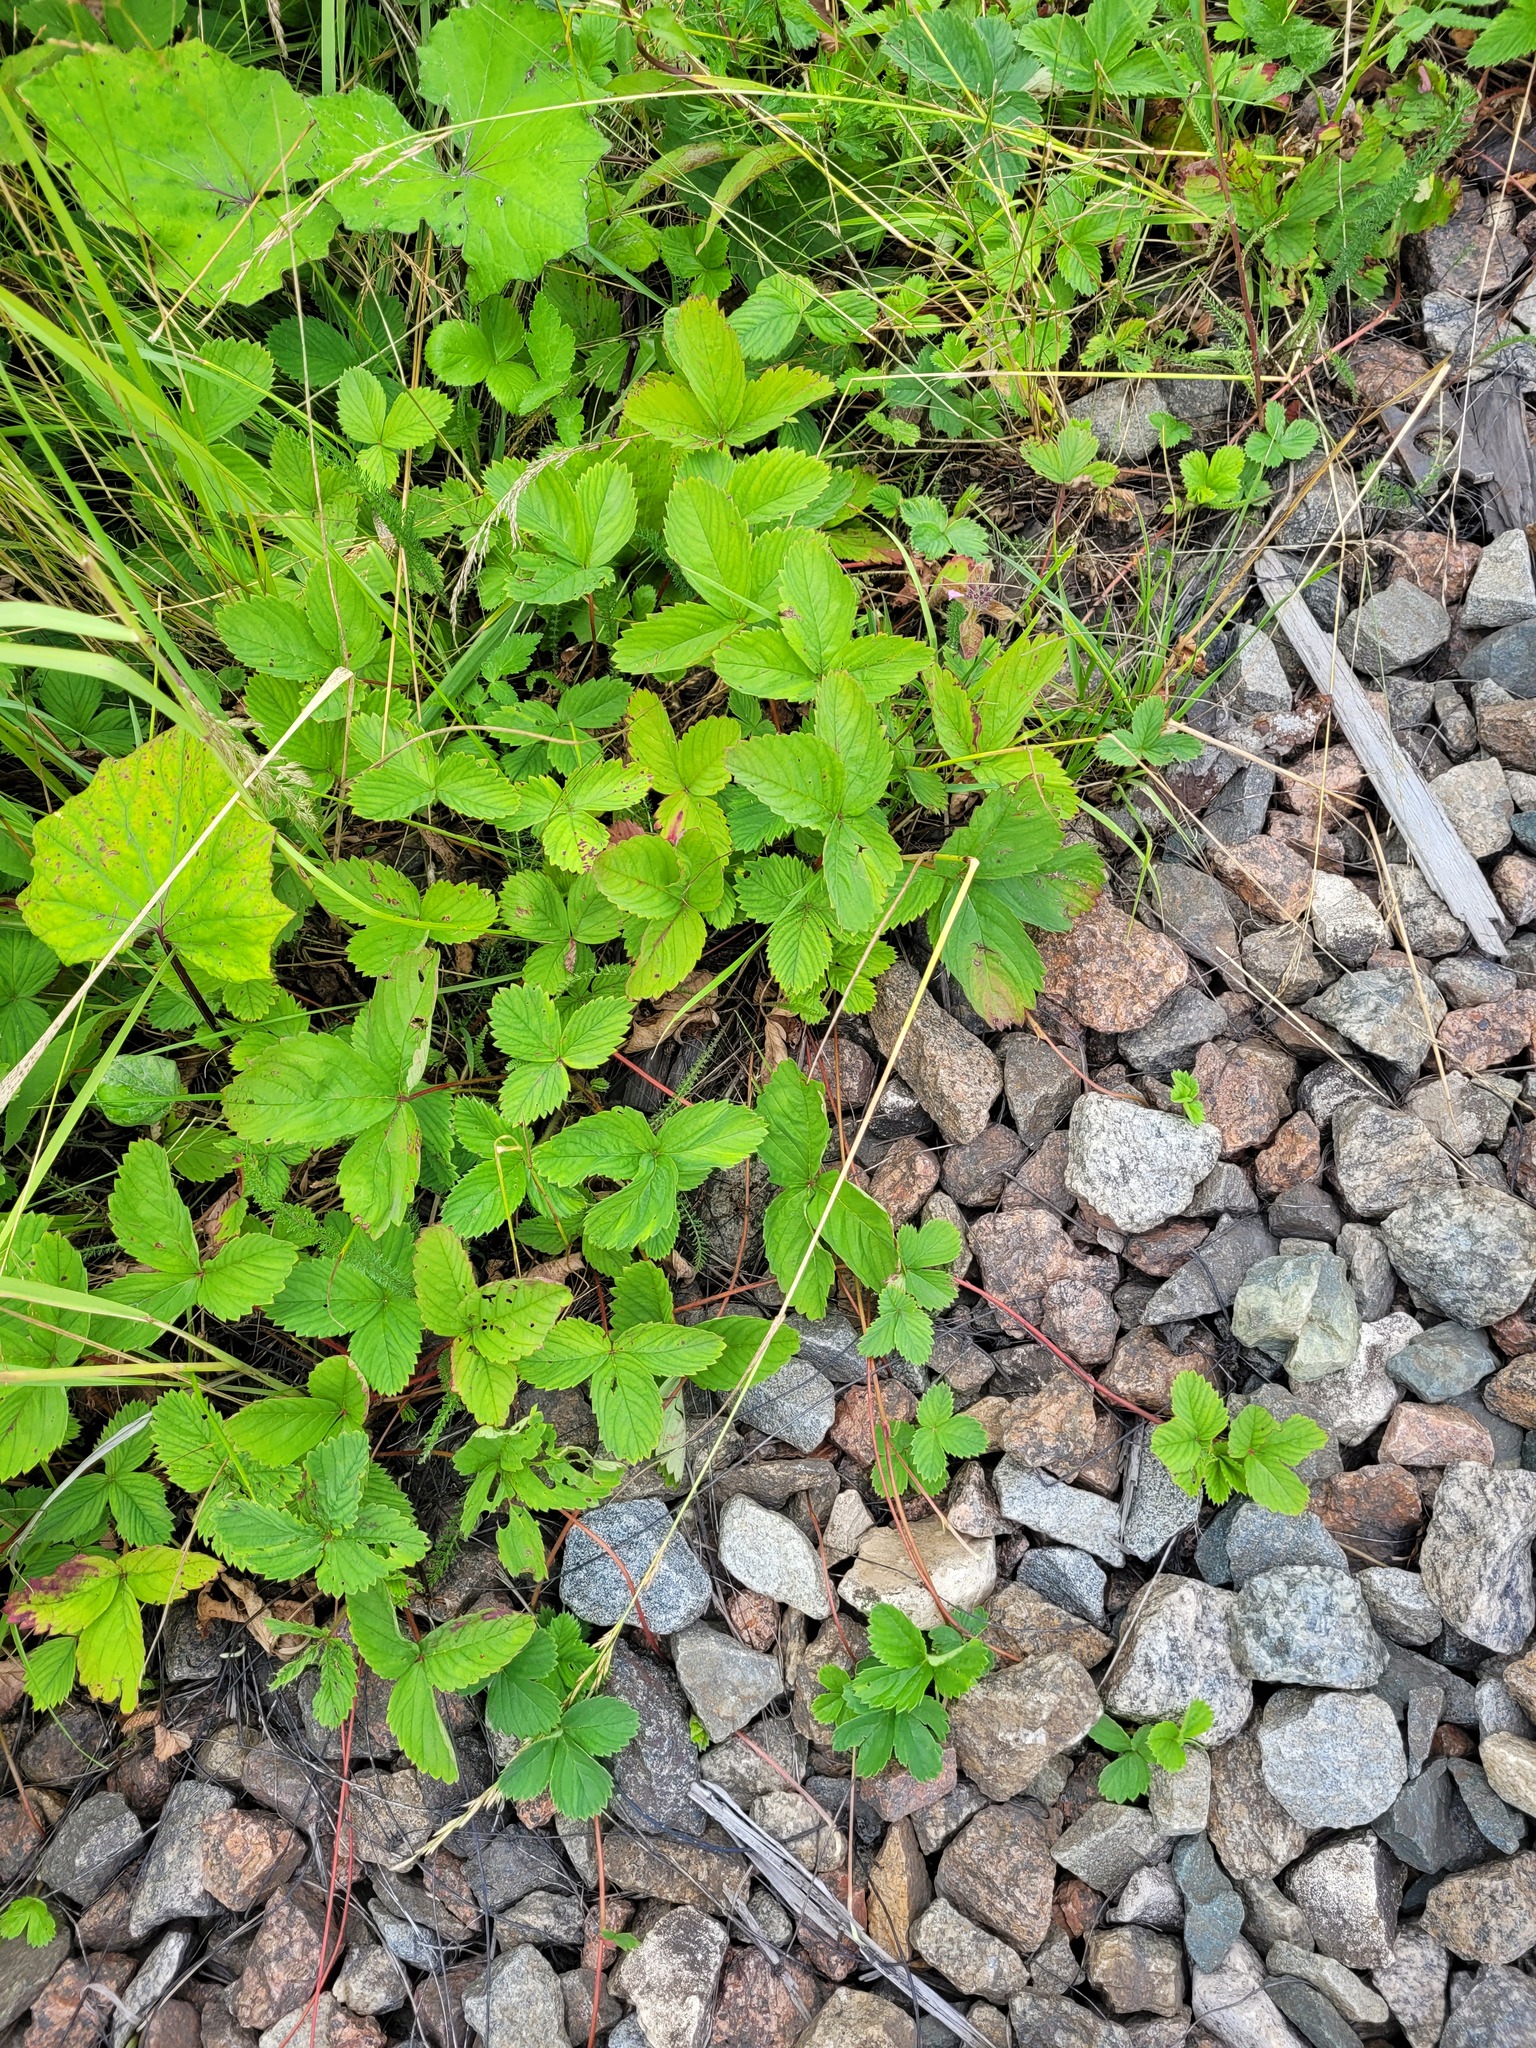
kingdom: Plantae
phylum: Tracheophyta
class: Magnoliopsida
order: Rosales
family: Rosaceae
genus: Fragaria
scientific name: Fragaria ananassa
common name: Garden strawberry
